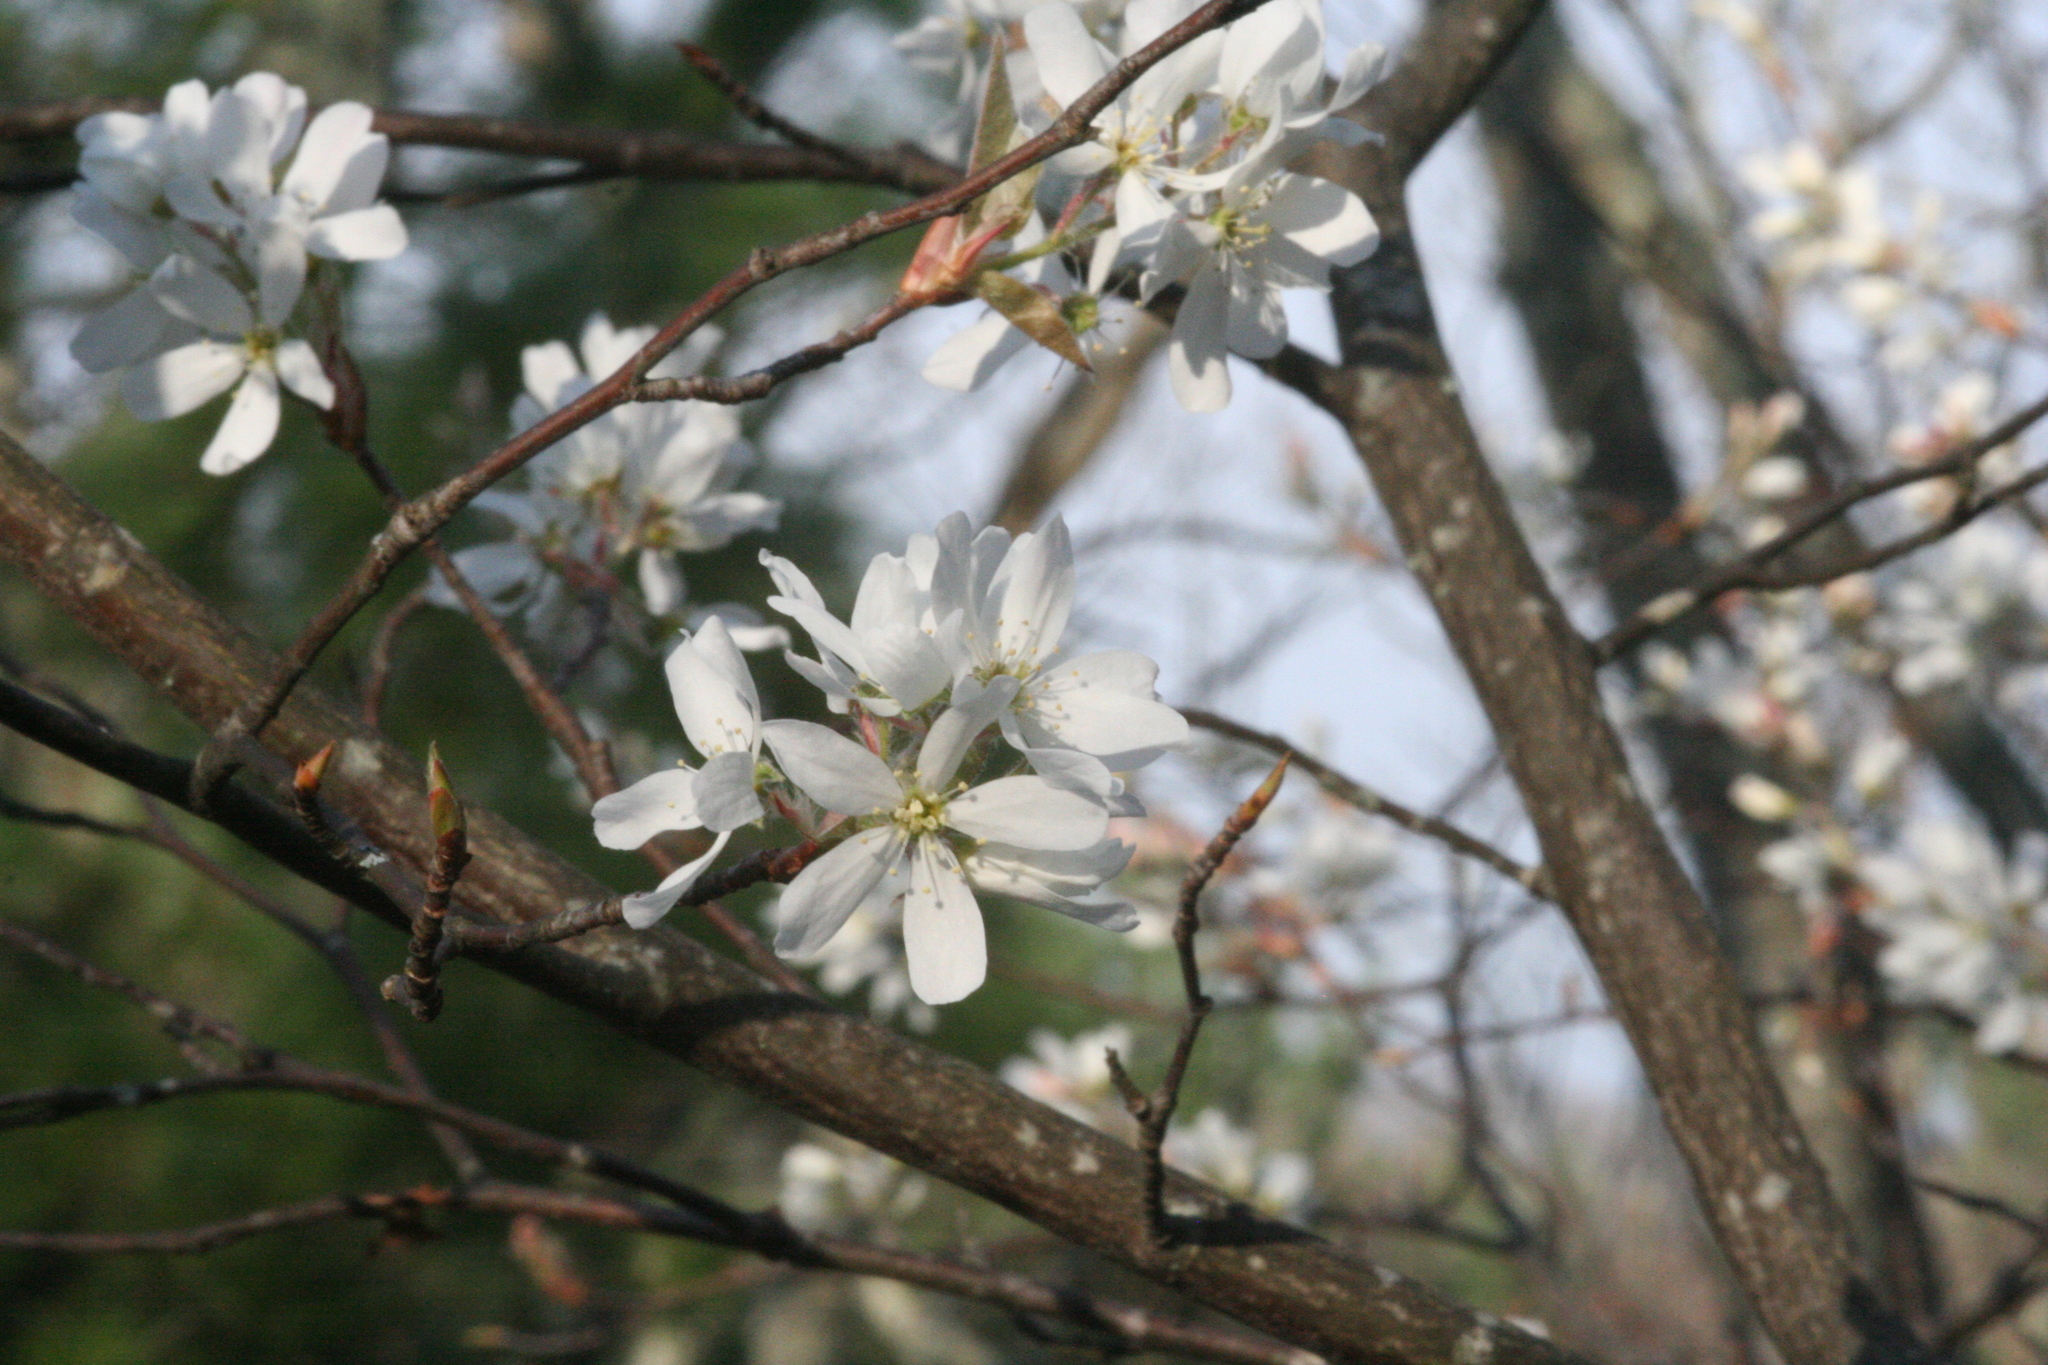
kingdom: Plantae
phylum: Tracheophyta
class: Magnoliopsida
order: Rosales
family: Rosaceae
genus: Amelanchier
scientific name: Amelanchier arborea
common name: Downy serviceberry
